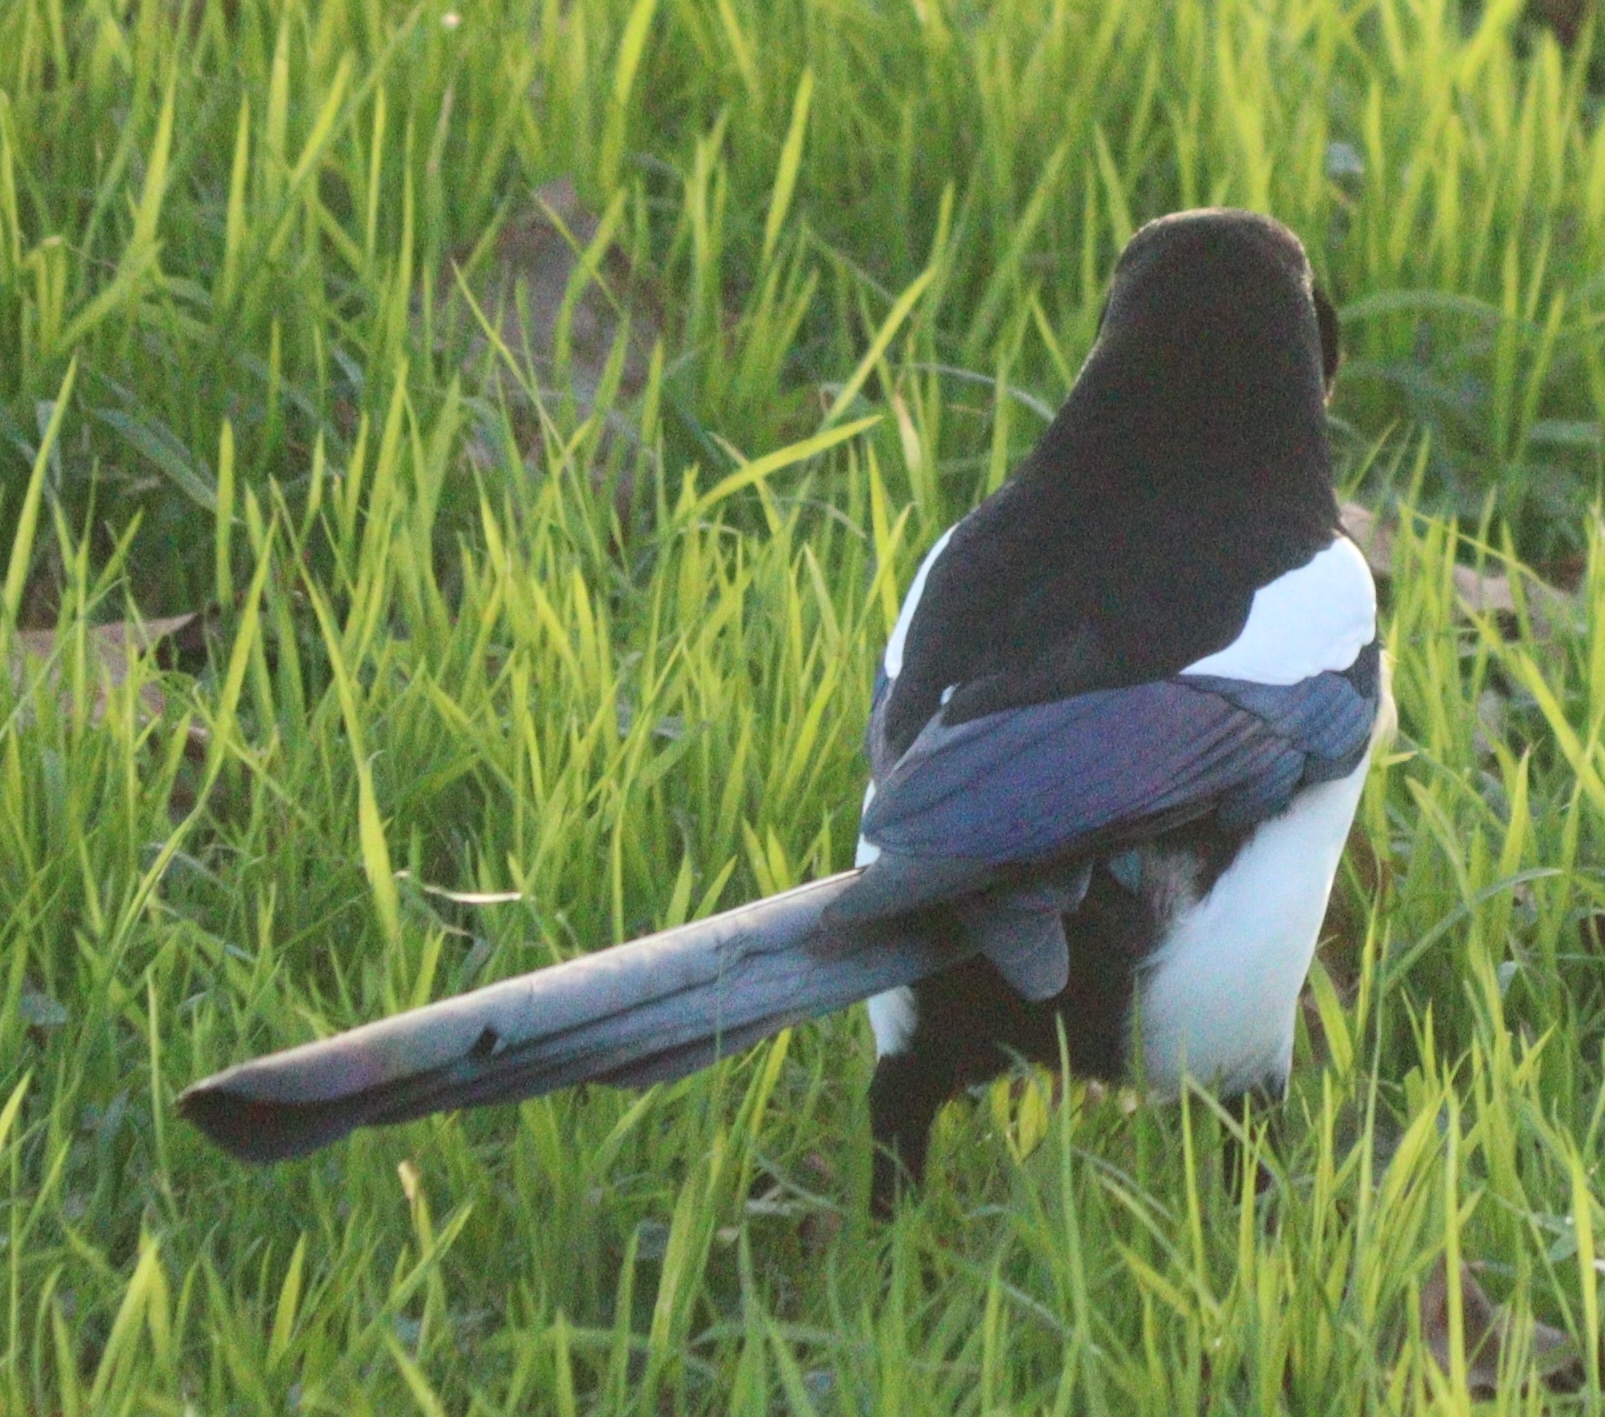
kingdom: Animalia
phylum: Chordata
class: Aves
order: Passeriformes
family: Corvidae
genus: Pica
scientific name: Pica pica
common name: Eurasian magpie
